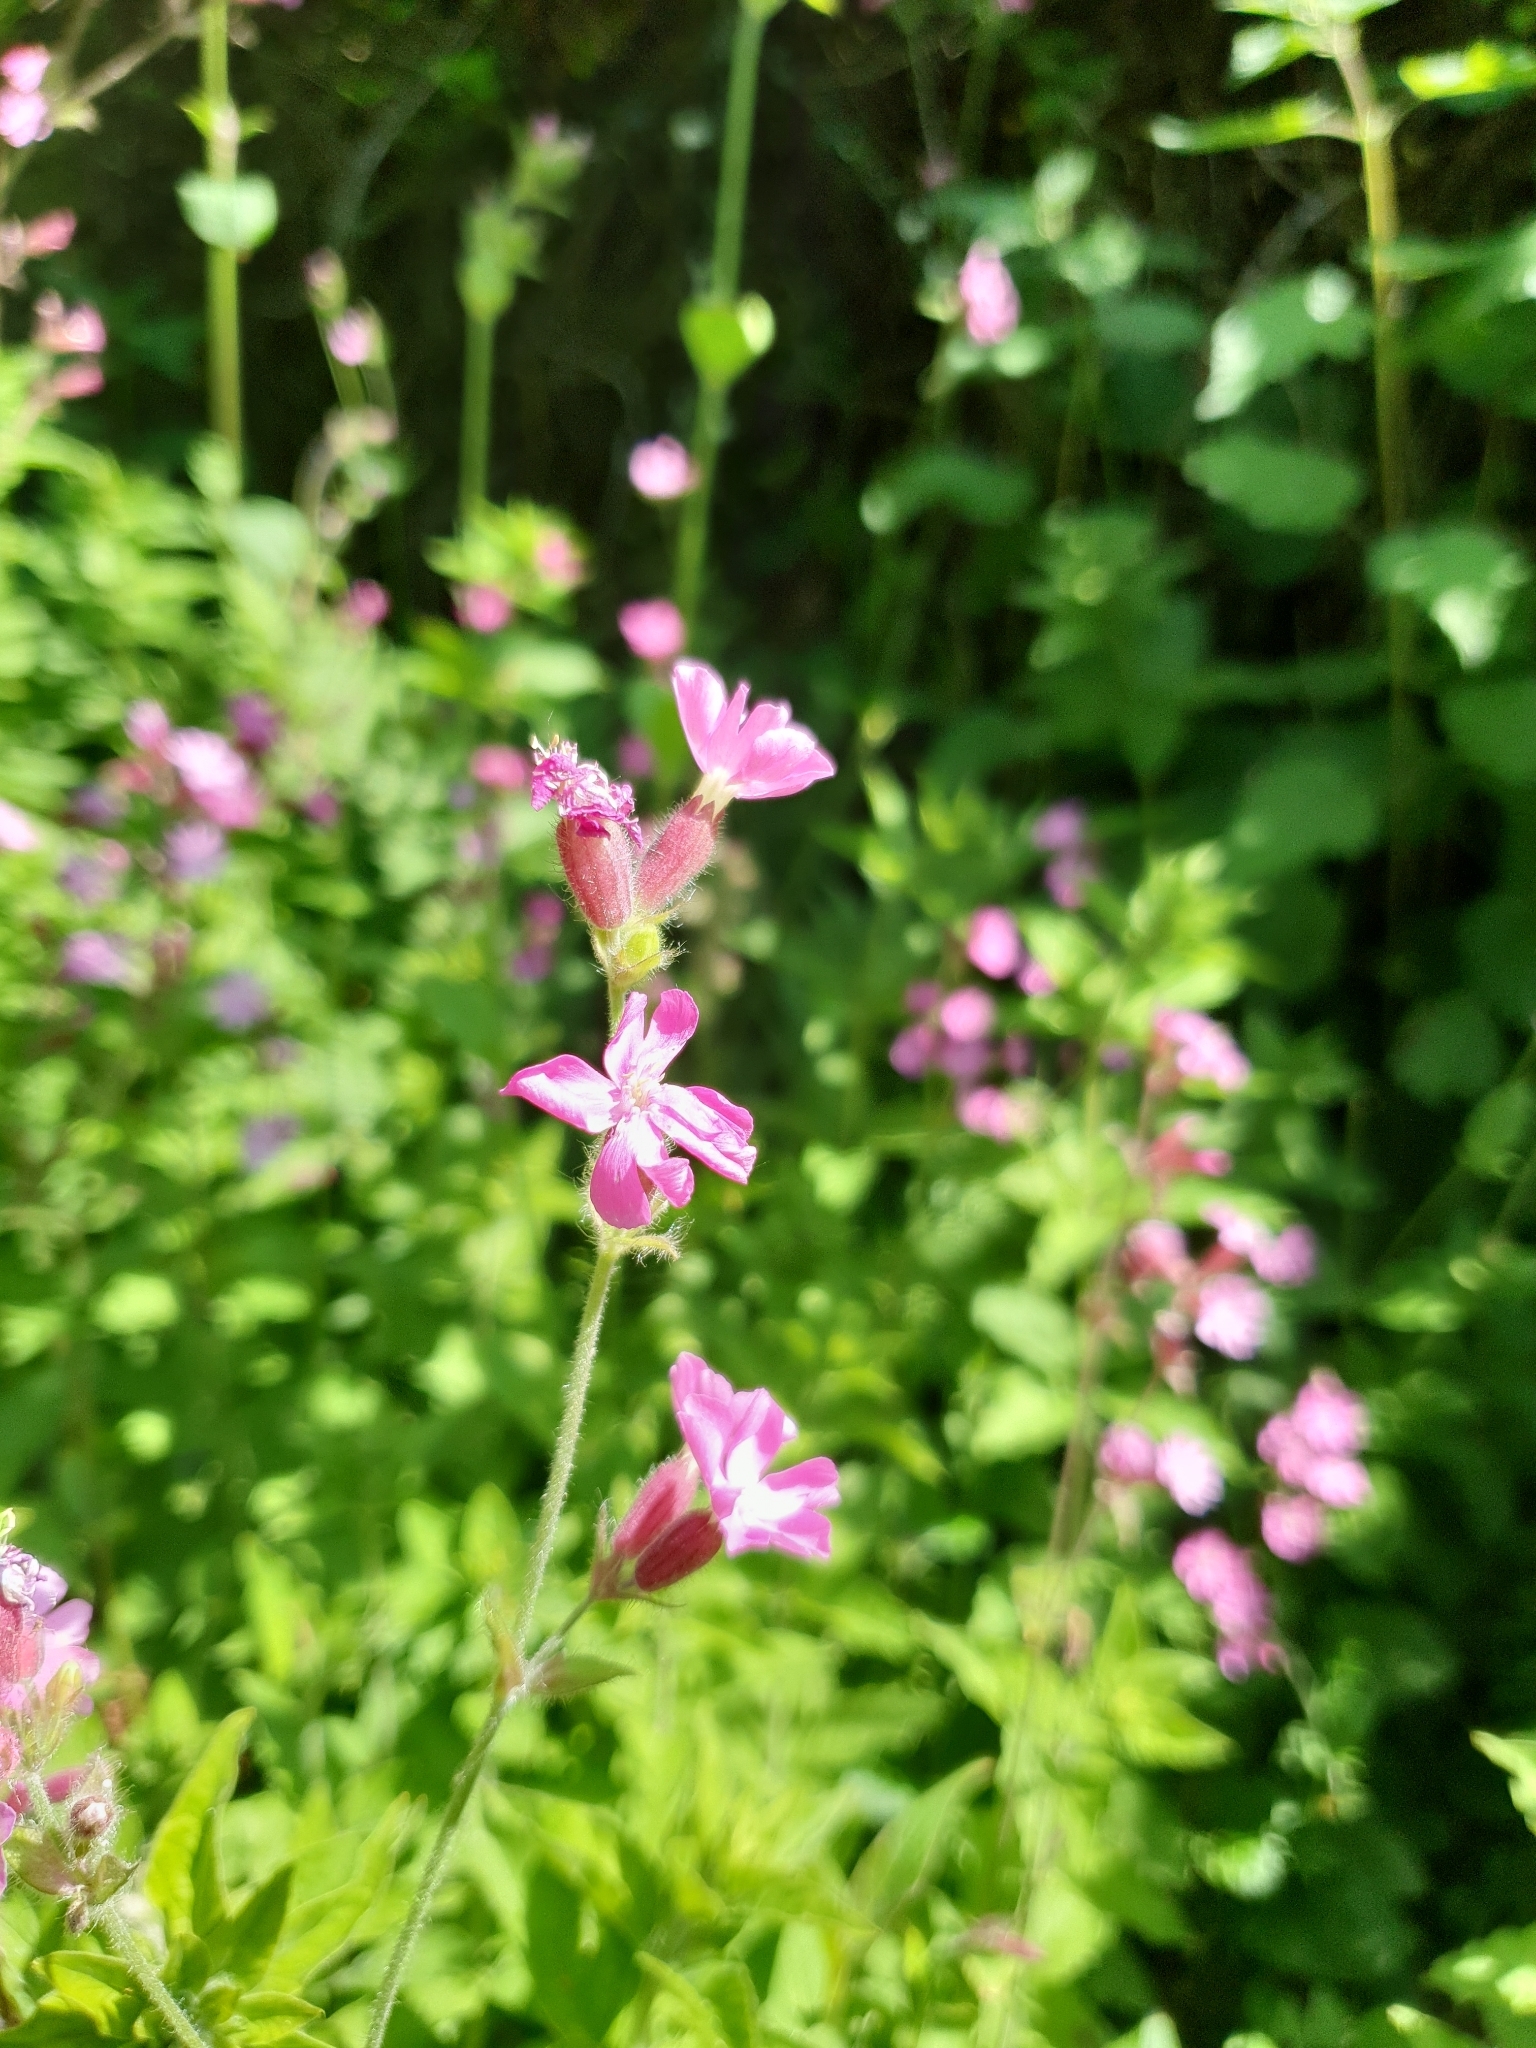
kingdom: Plantae
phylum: Tracheophyta
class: Magnoliopsida
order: Caryophyllales
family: Caryophyllaceae
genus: Silene
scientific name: Silene dioica
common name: Red campion
